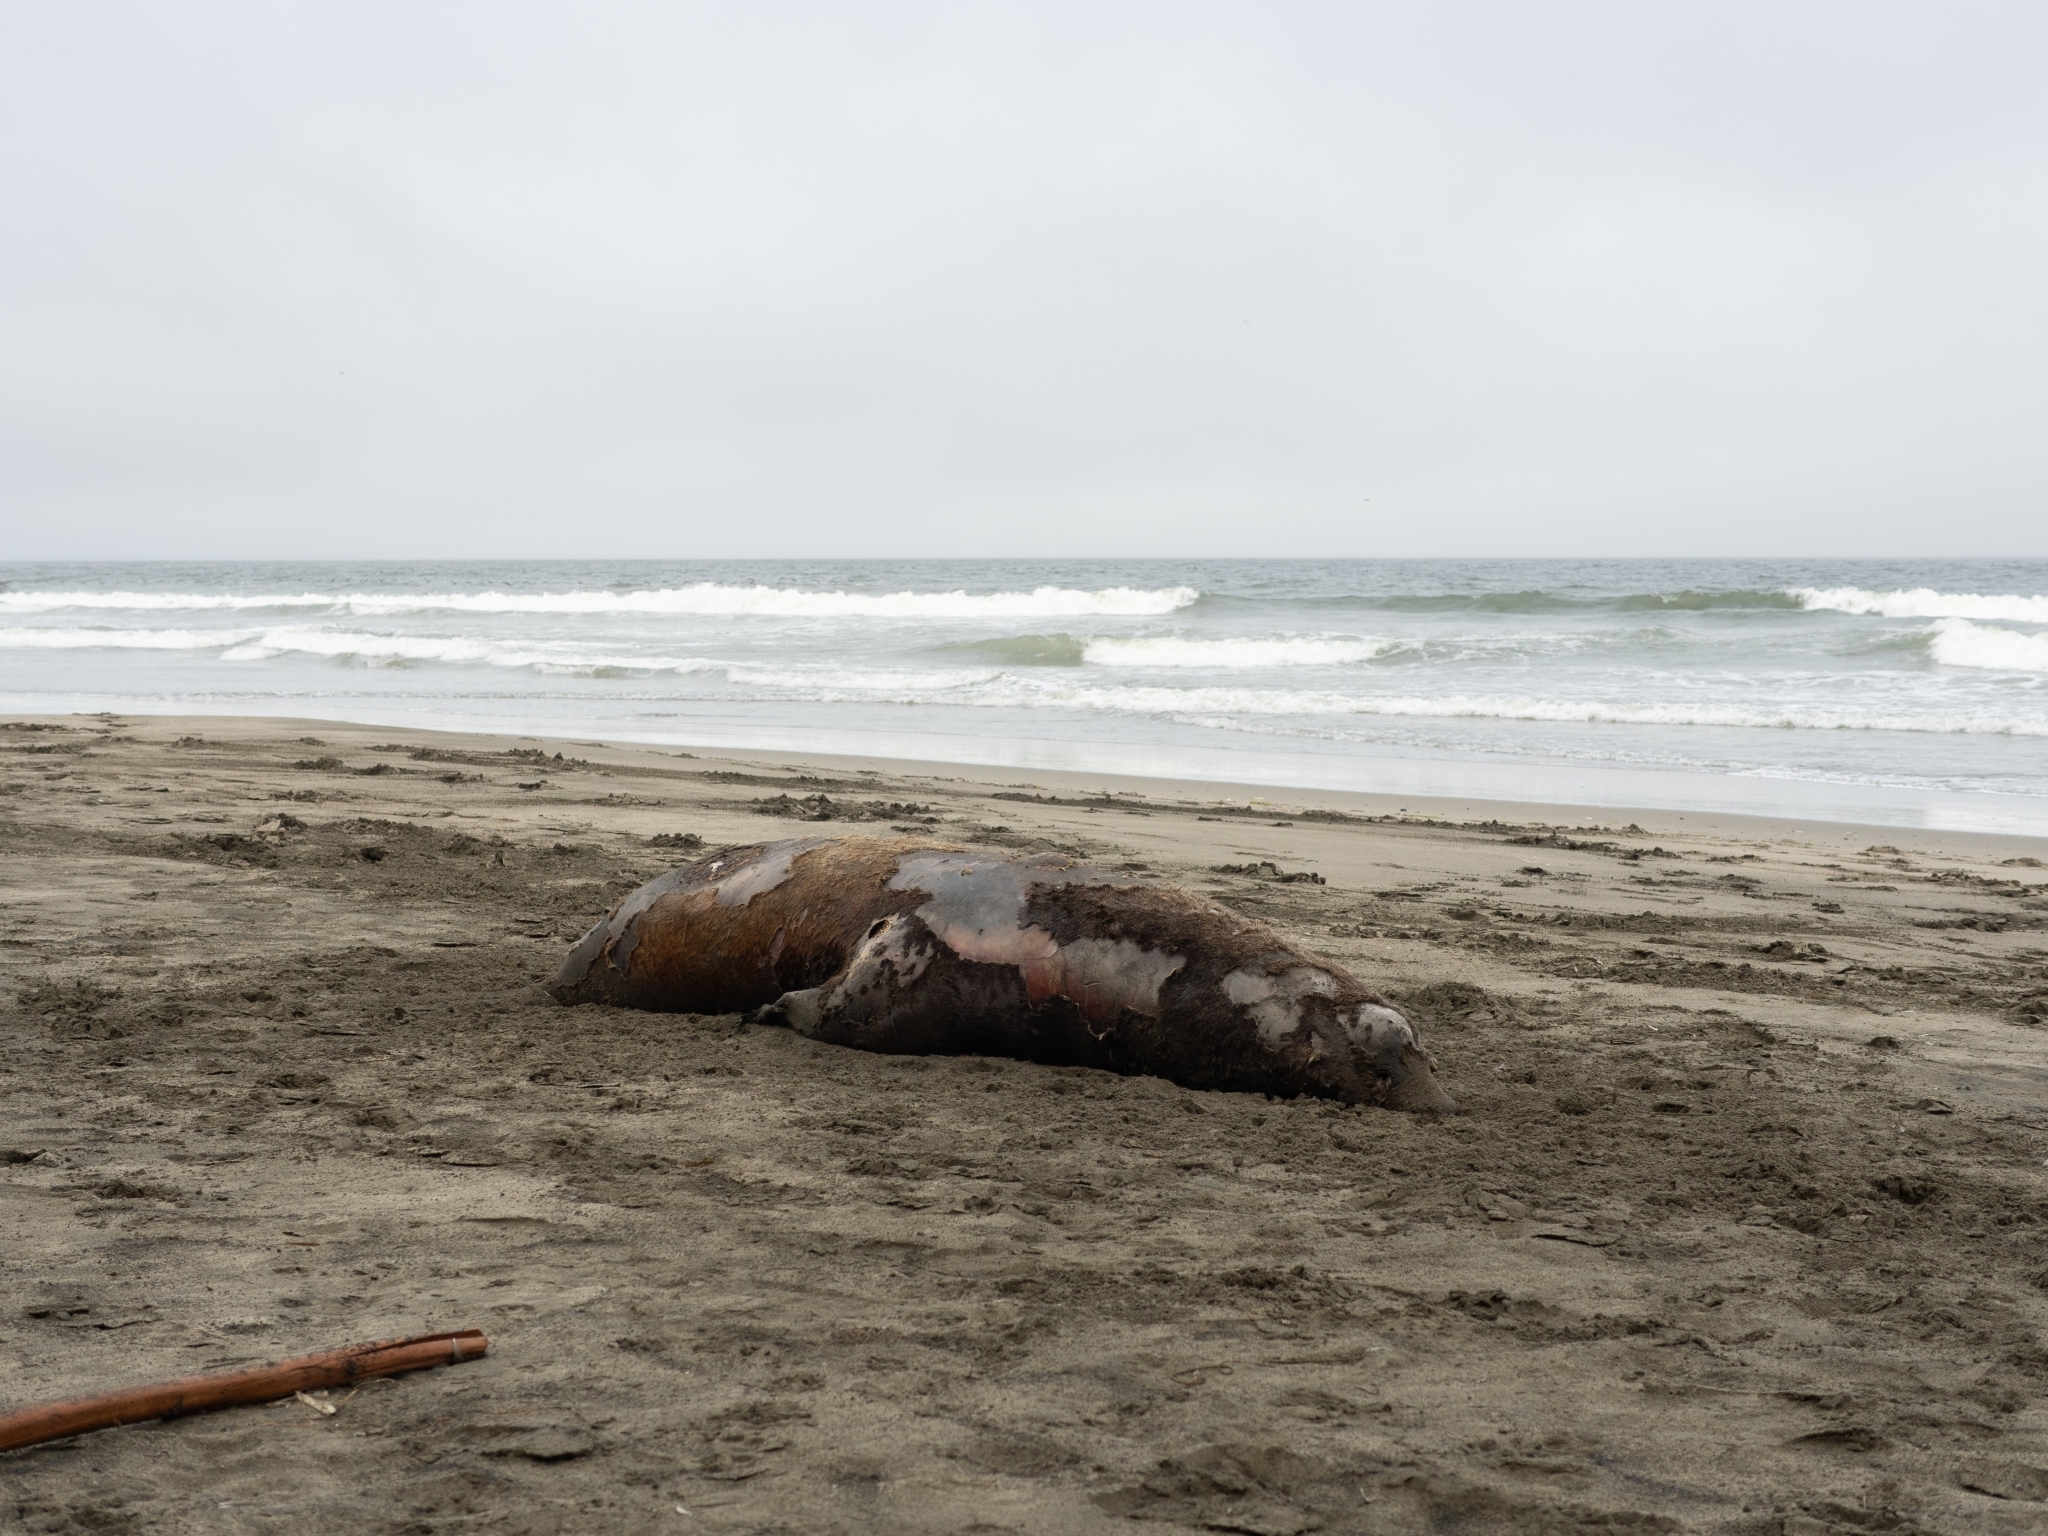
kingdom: Animalia
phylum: Chordata
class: Mammalia
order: Carnivora
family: Otariidae
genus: Zalophus
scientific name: Zalophus californianus
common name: California sea lion
